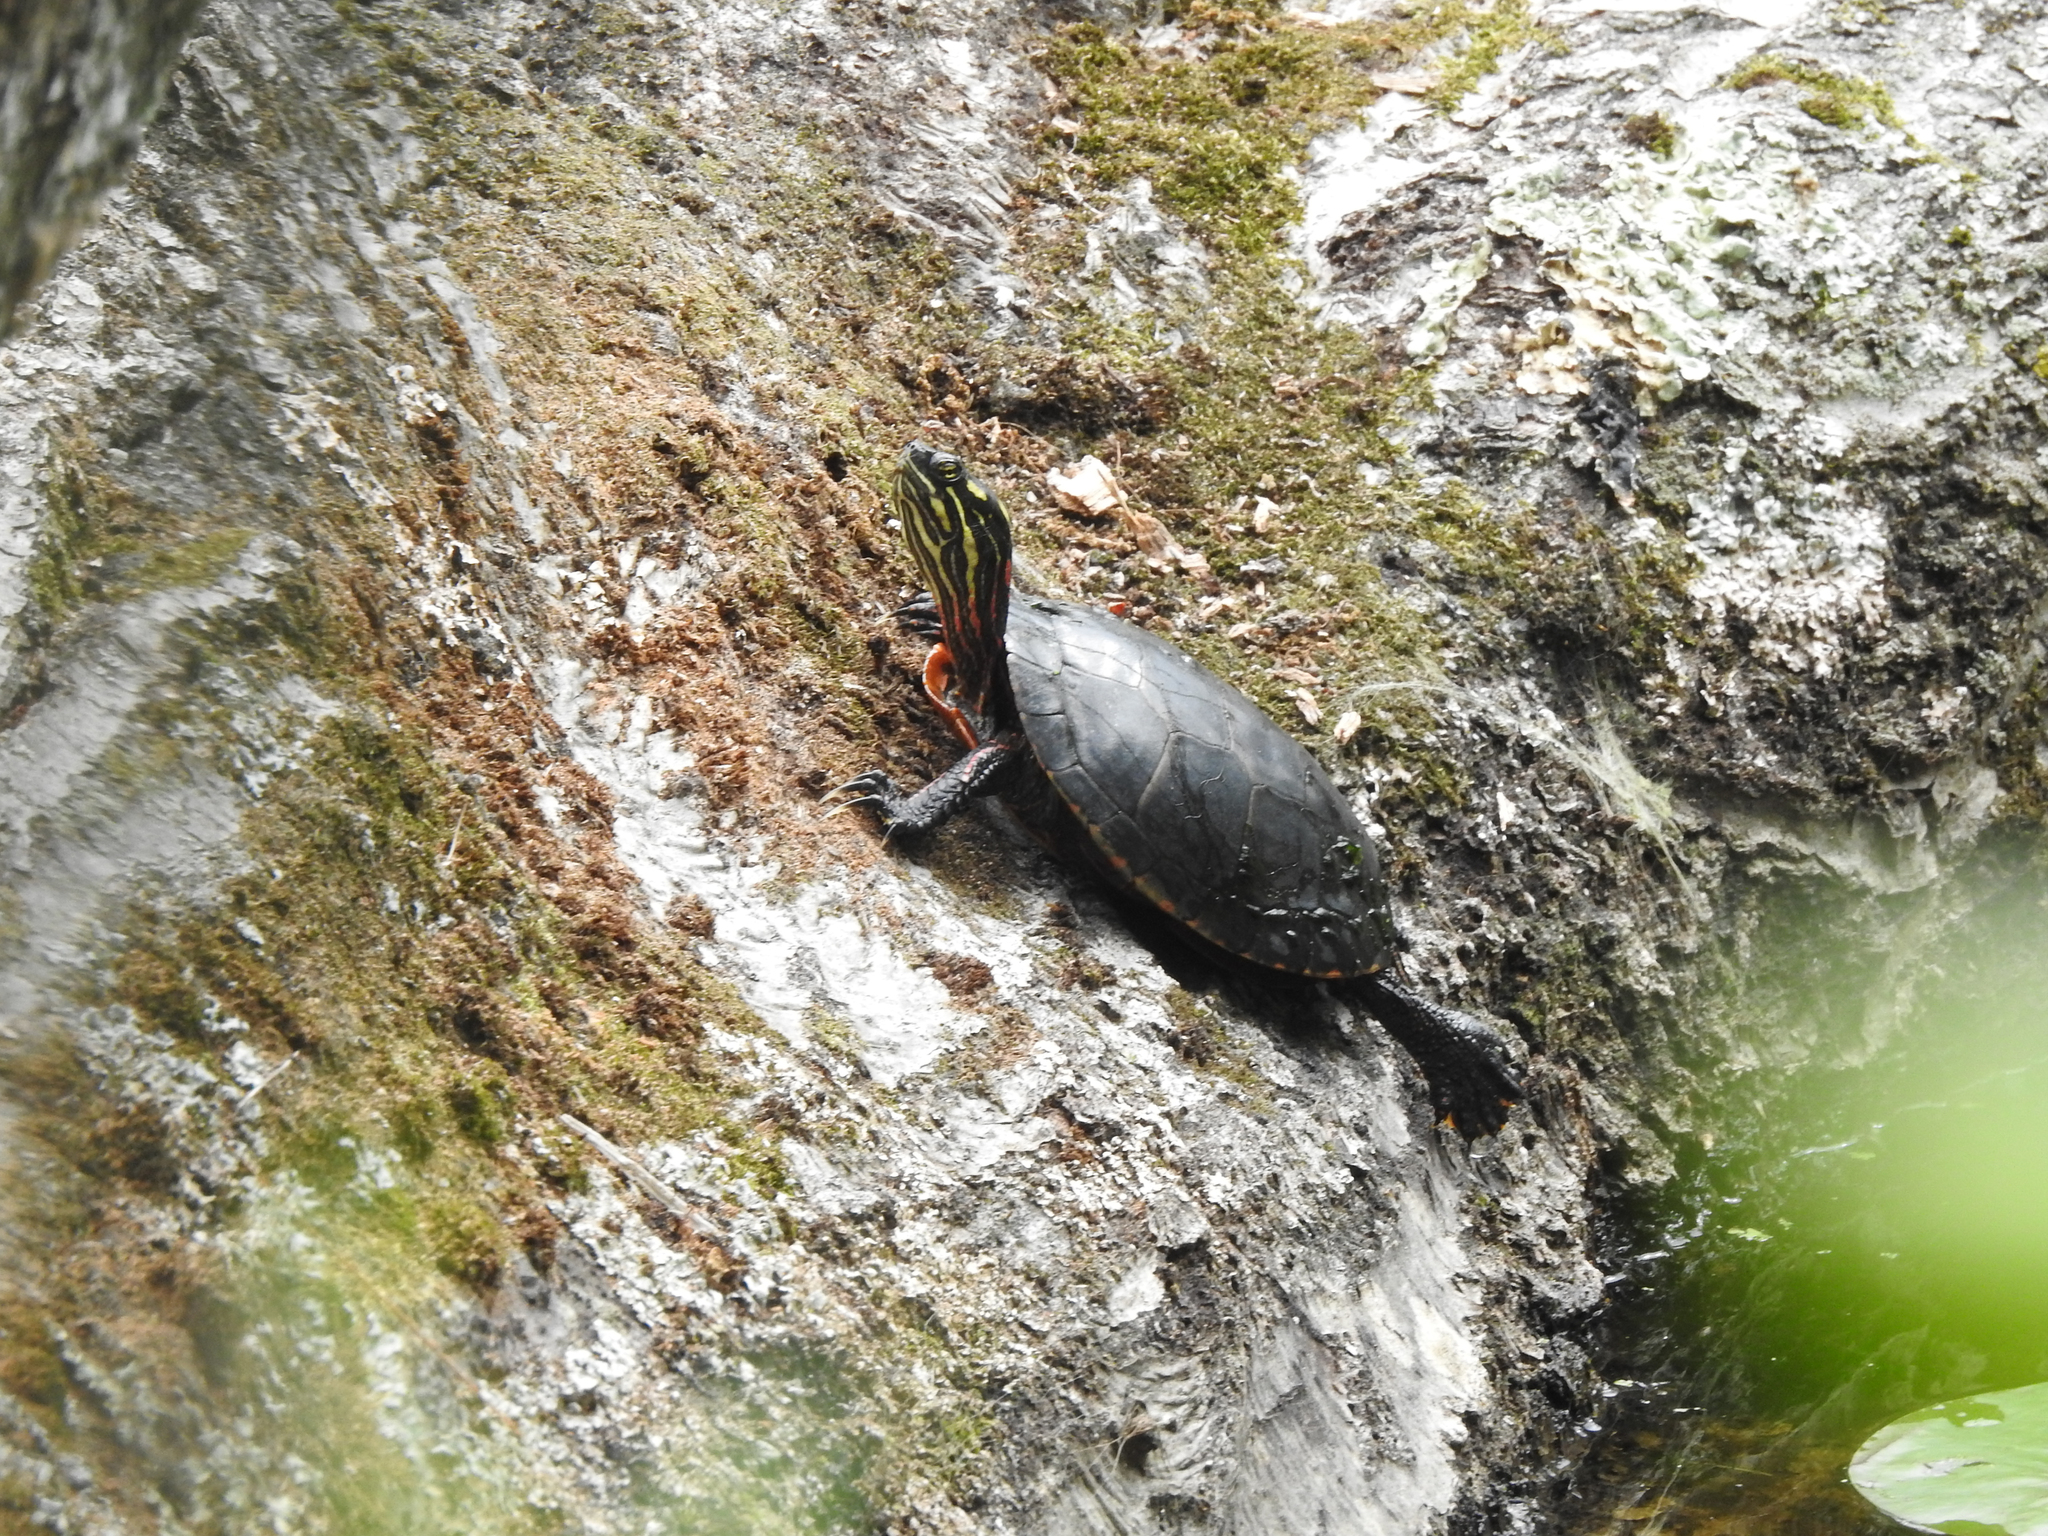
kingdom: Animalia
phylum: Chordata
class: Testudines
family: Emydidae
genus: Chrysemys
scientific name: Chrysemys picta
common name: Painted turtle
